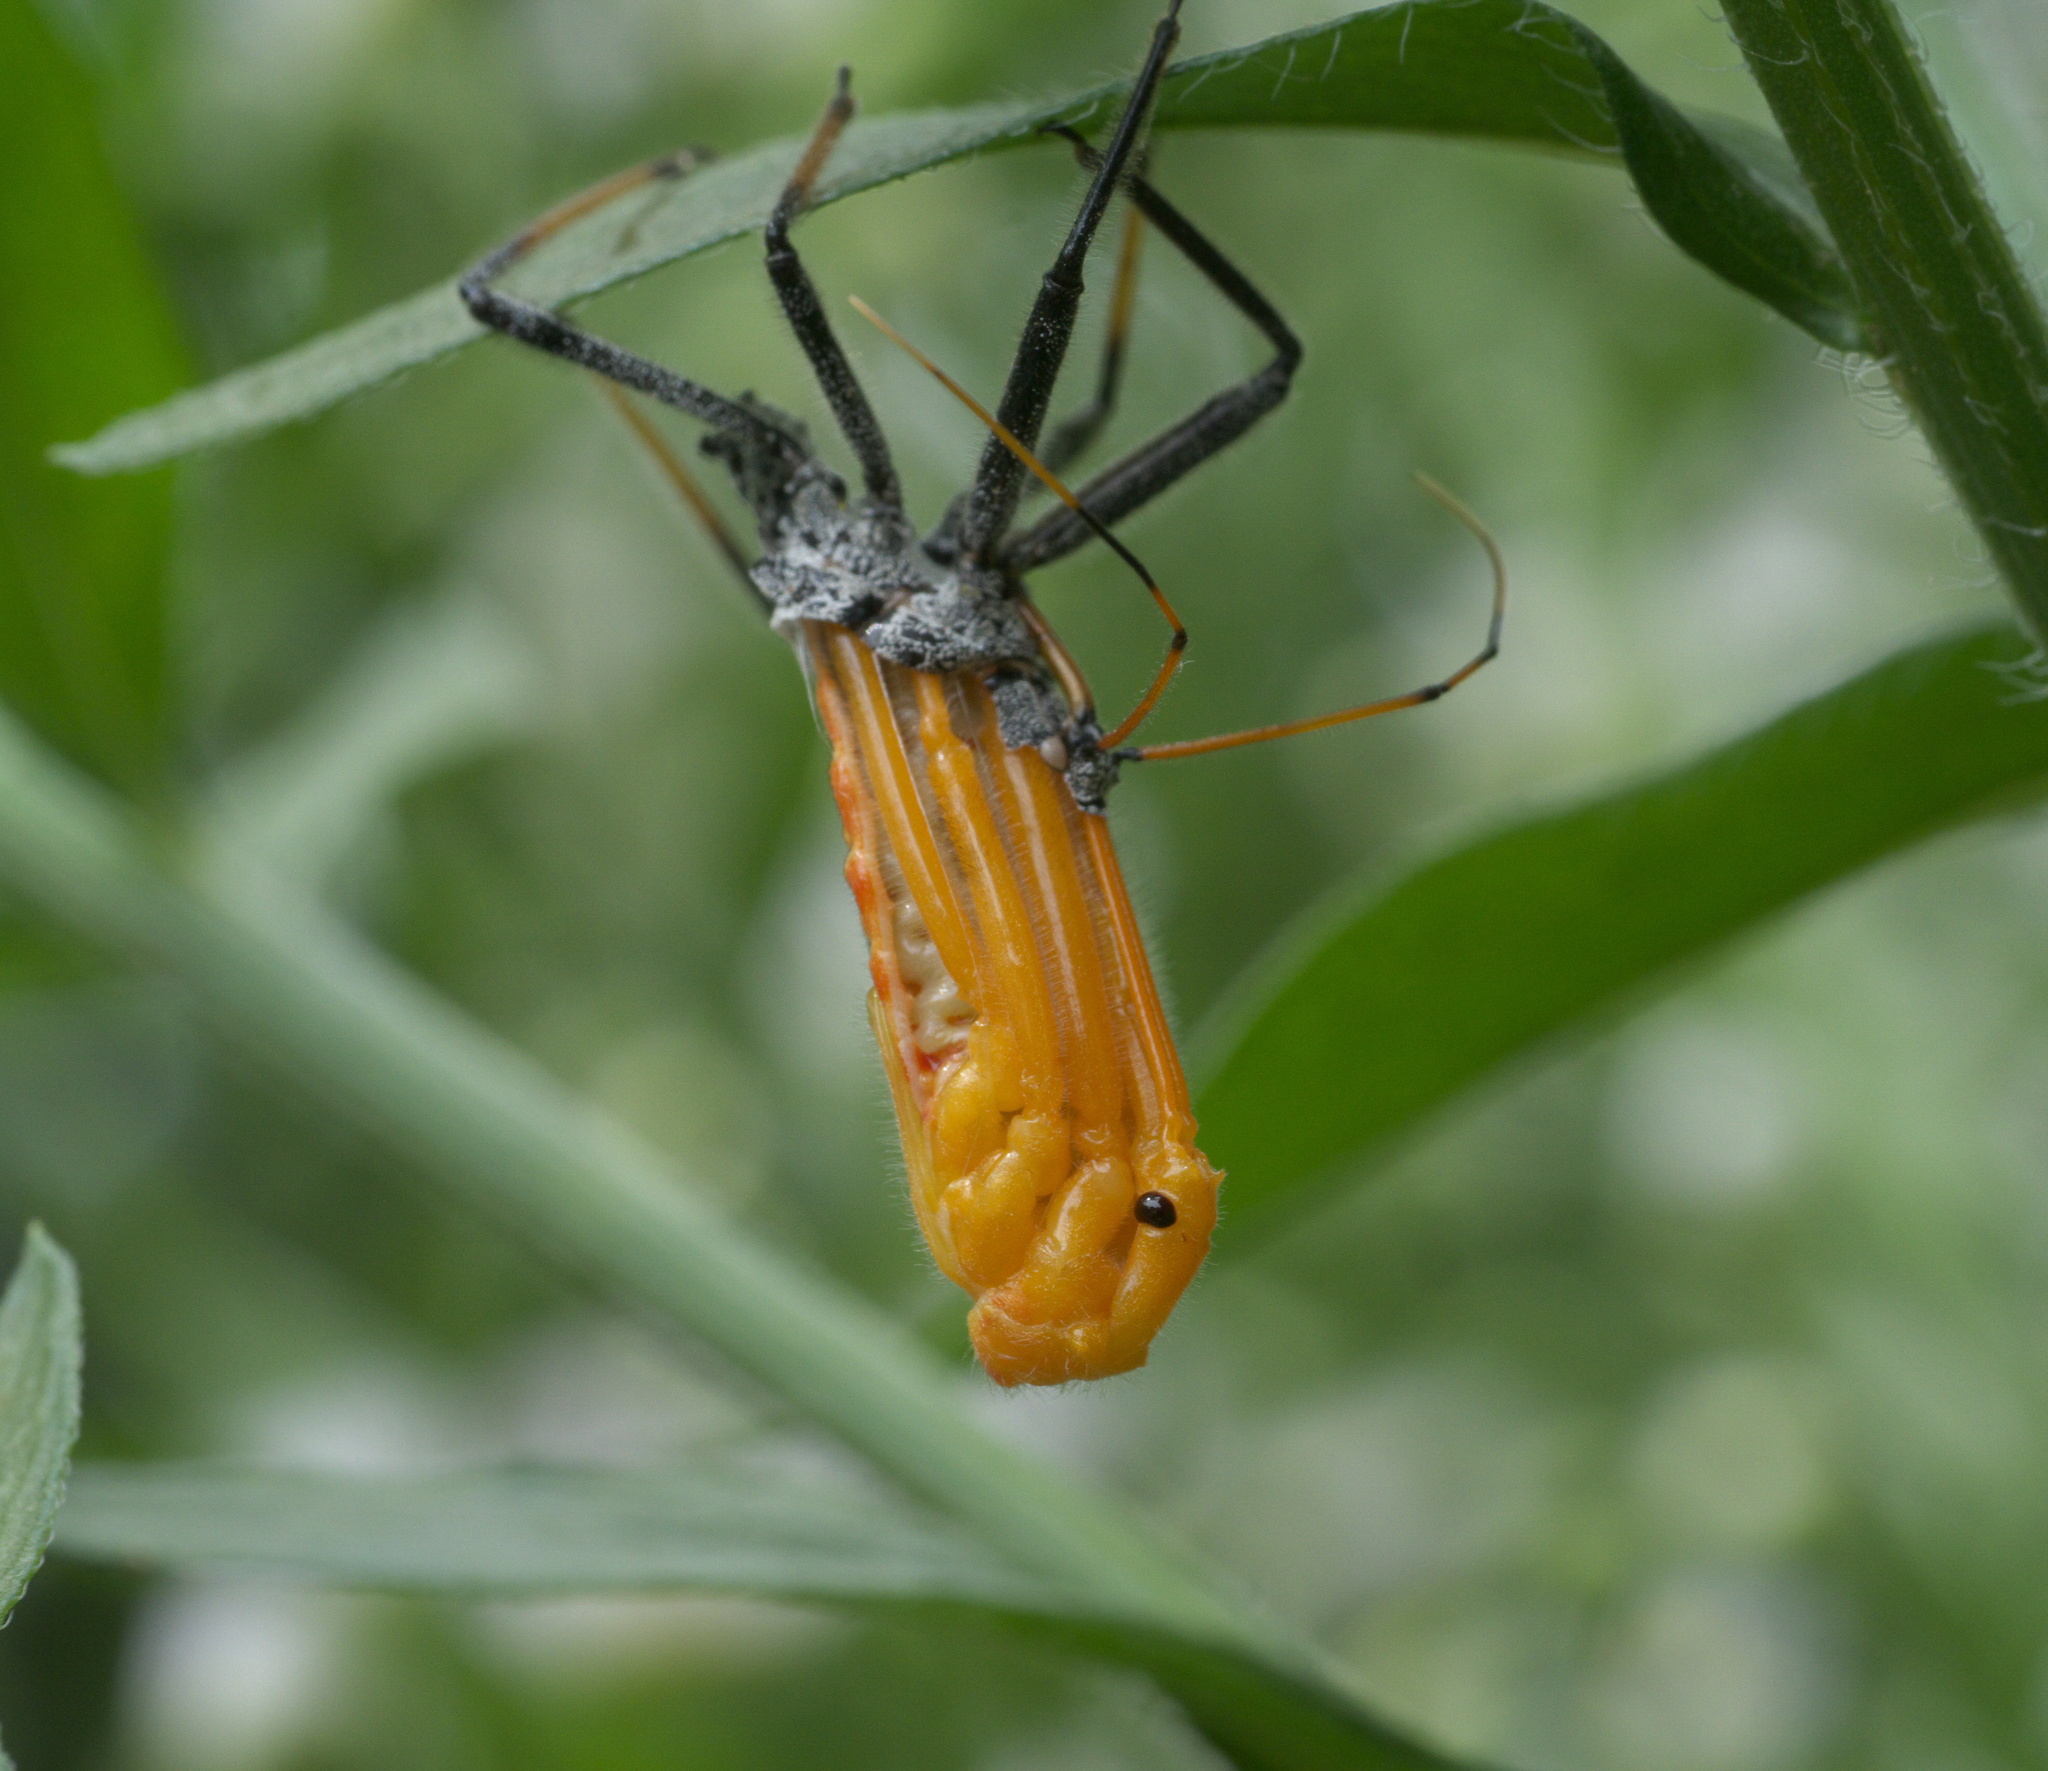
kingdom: Animalia
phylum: Arthropoda
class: Insecta
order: Hemiptera
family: Reduviidae
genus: Arilus
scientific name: Arilus cristatus
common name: North american wheel bug
